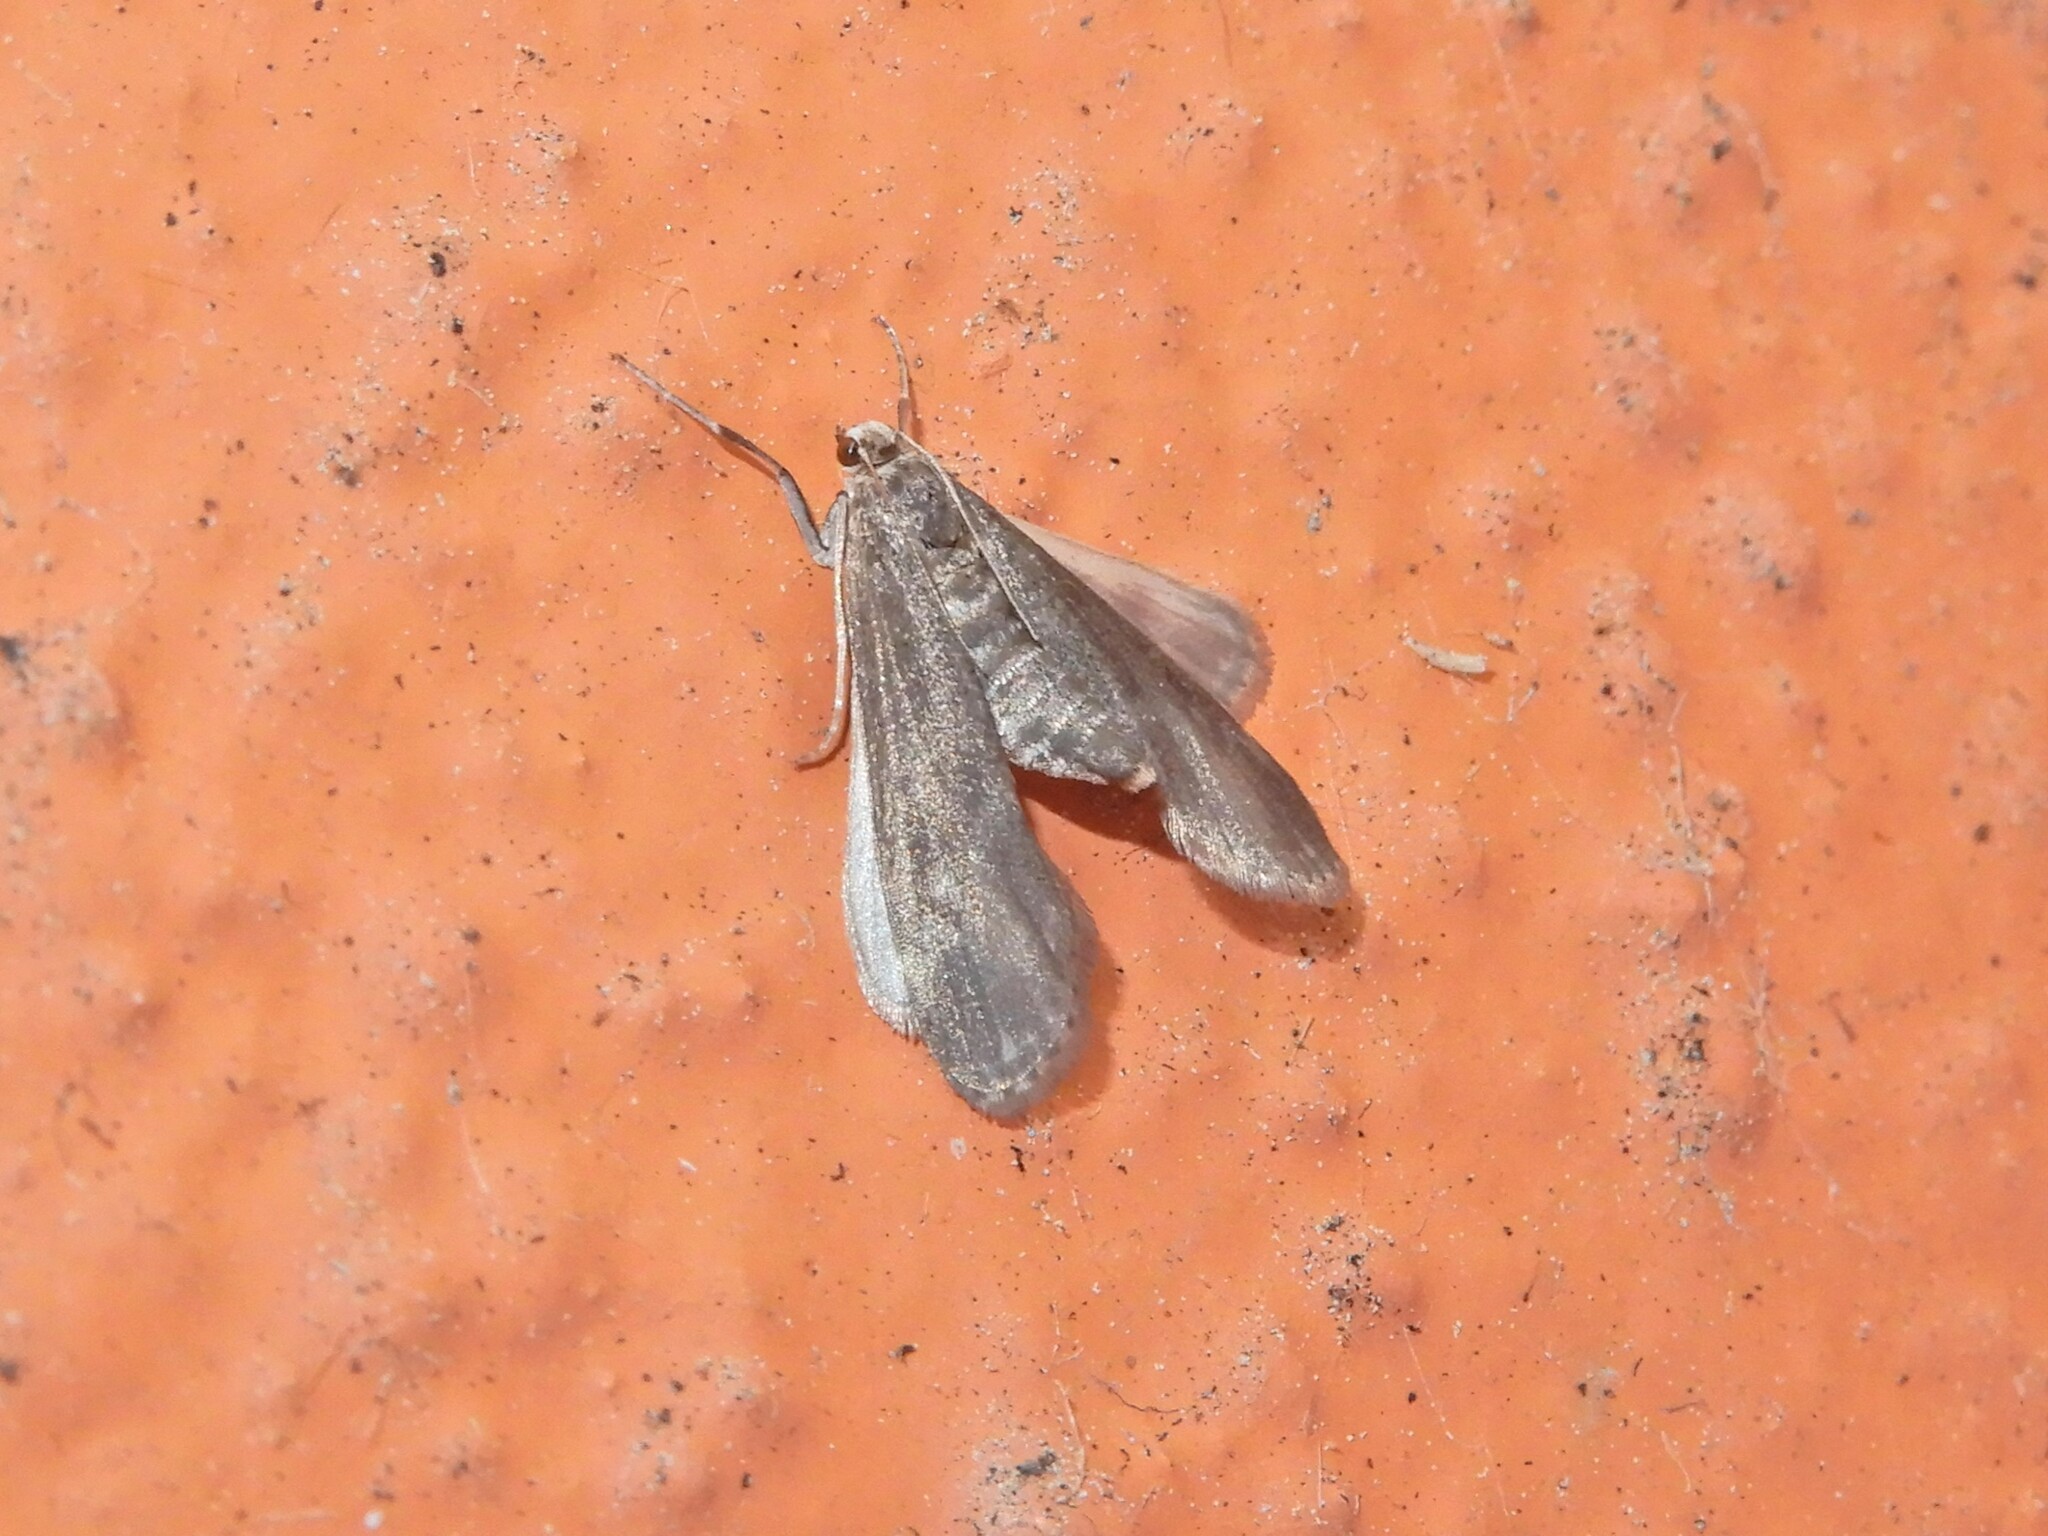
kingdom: Animalia
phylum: Arthropoda
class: Insecta
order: Lepidoptera
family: Crambidae
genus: Hygraula
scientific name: Hygraula nitens
